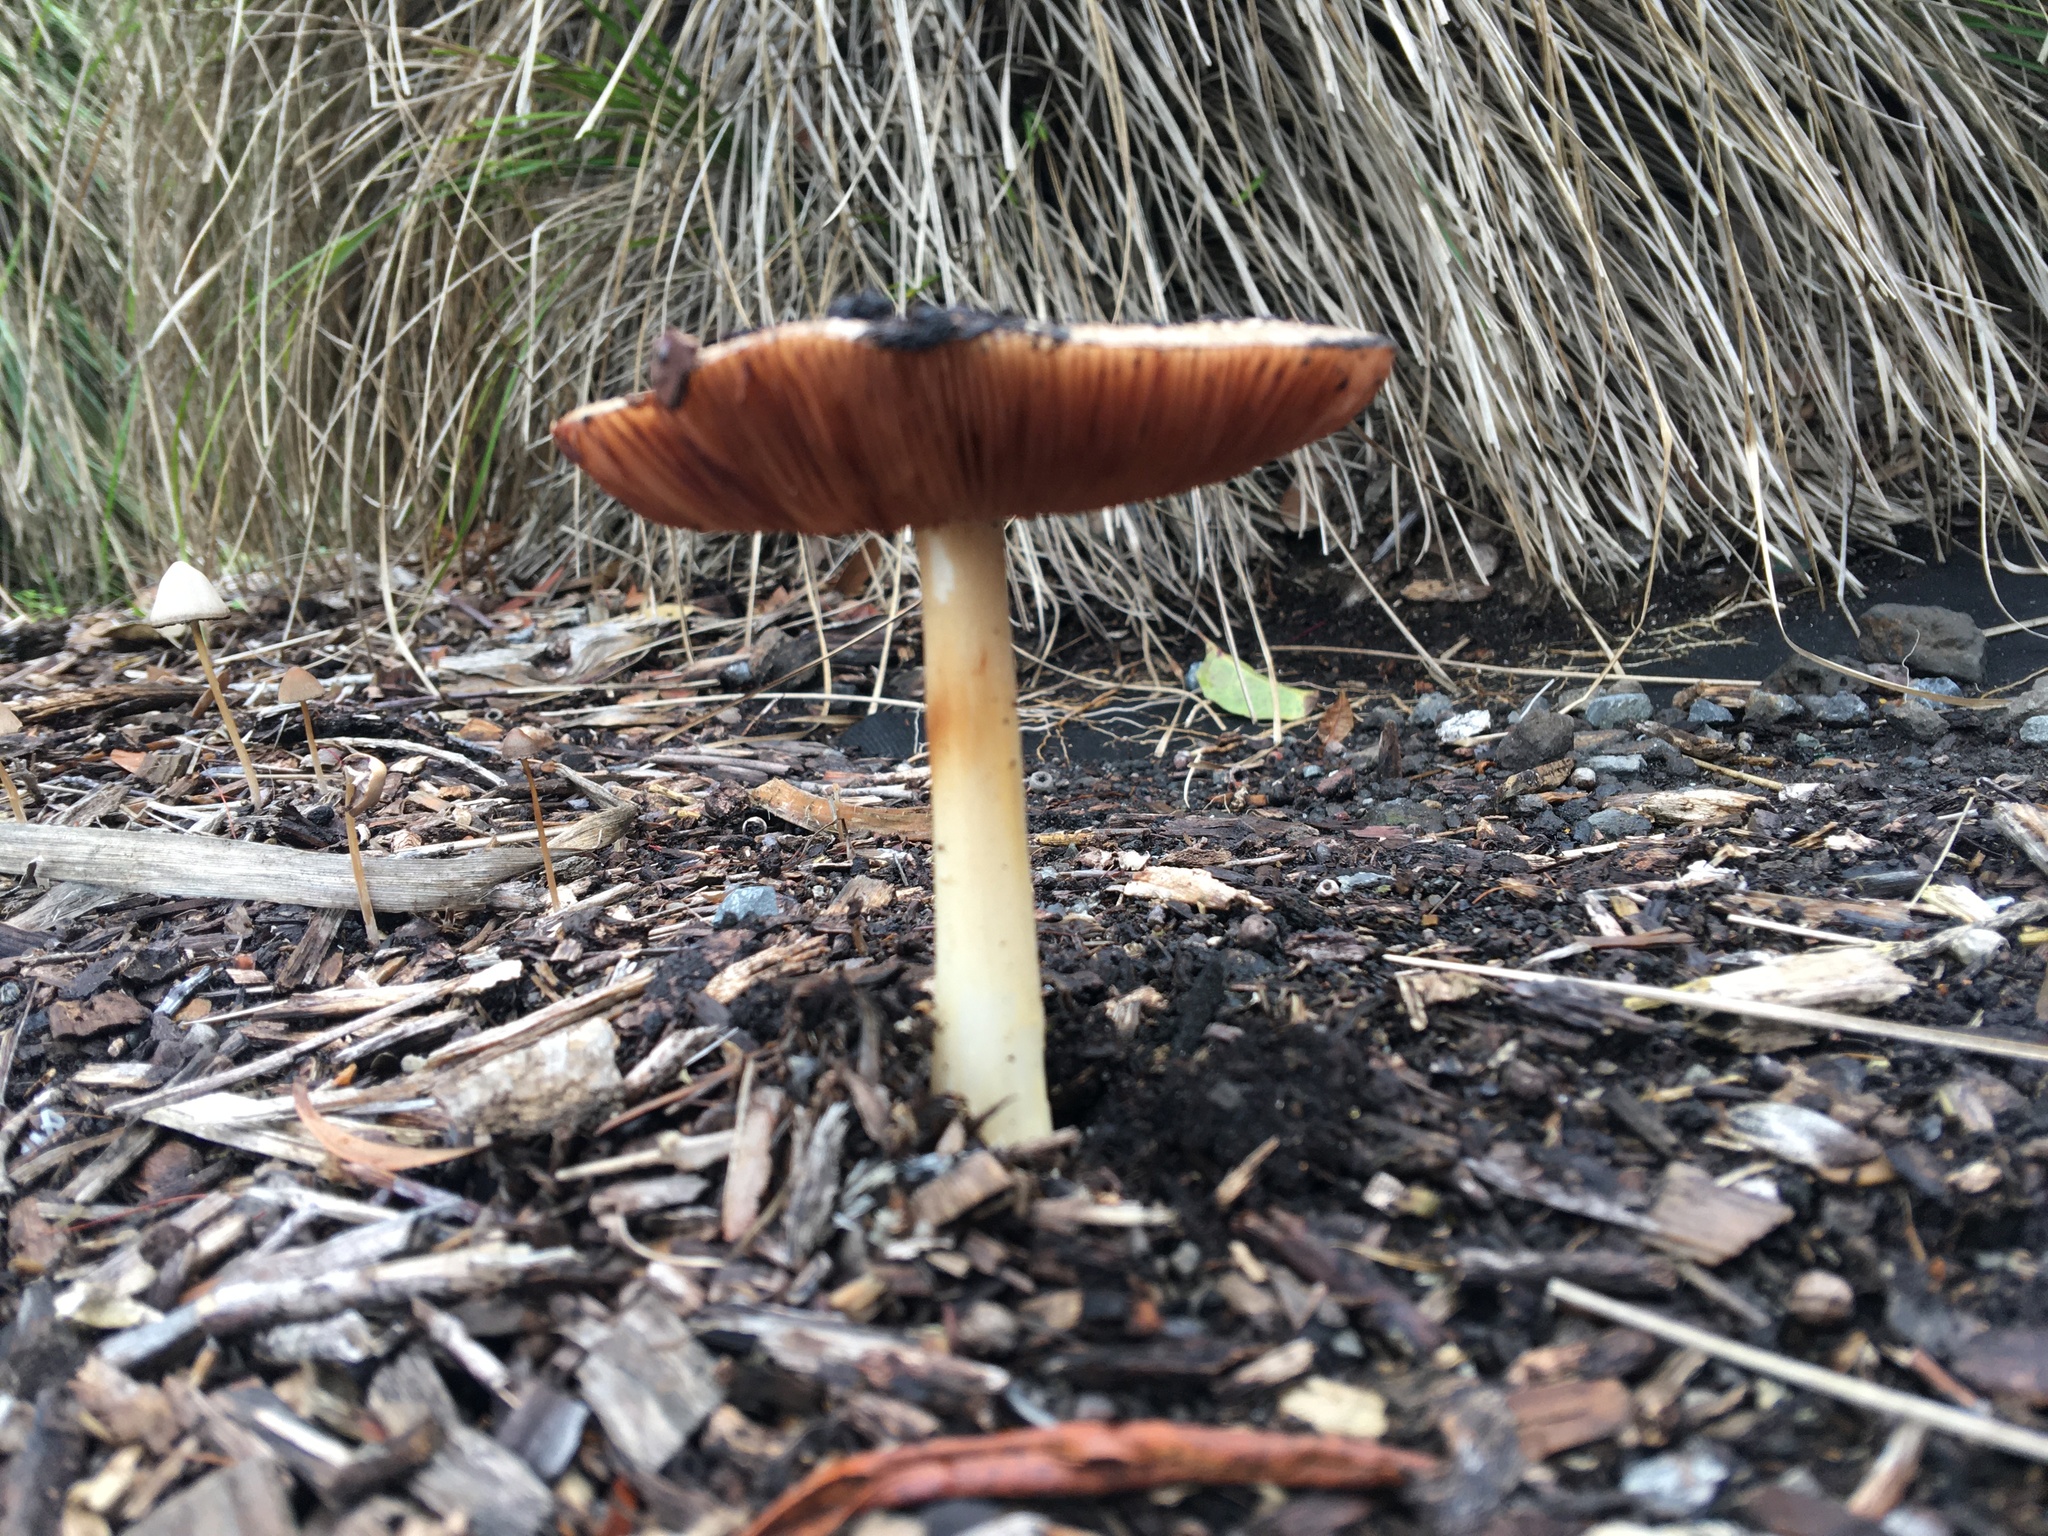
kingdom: Fungi
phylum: Basidiomycota
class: Agaricomycetes
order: Agaricales
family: Pluteaceae
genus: Volvopluteus
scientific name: Volvopluteus gloiocephalus
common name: Stubble rosegill
